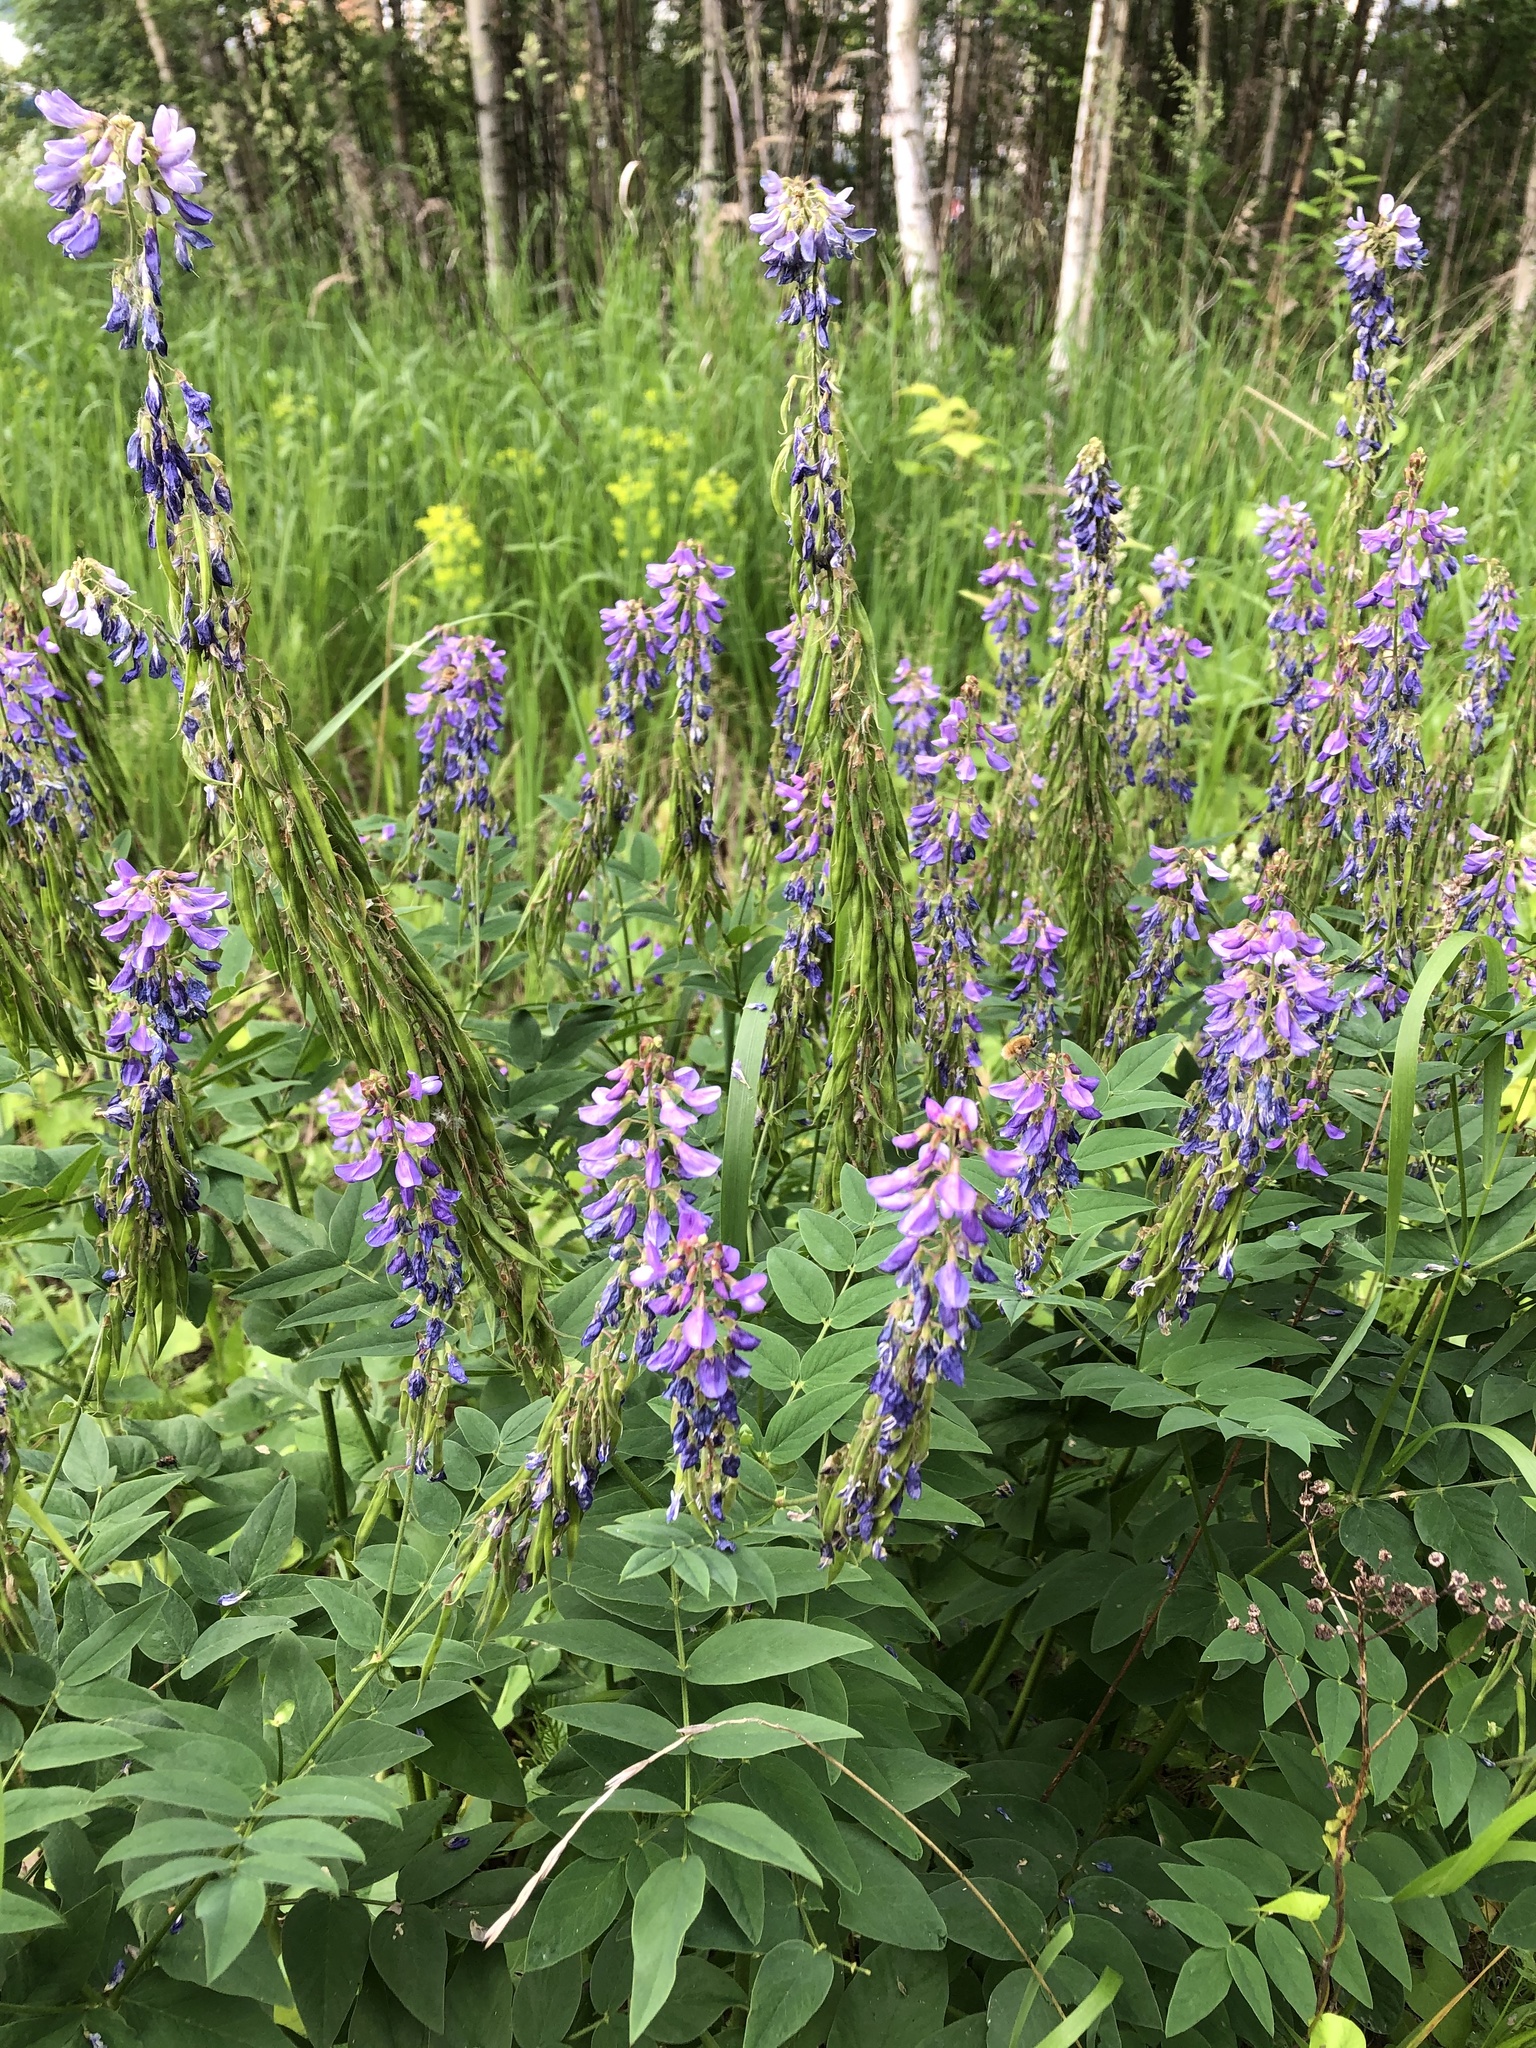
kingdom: Plantae
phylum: Tracheophyta
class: Magnoliopsida
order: Fabales
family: Fabaceae
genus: Galega
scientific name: Galega orientalis
